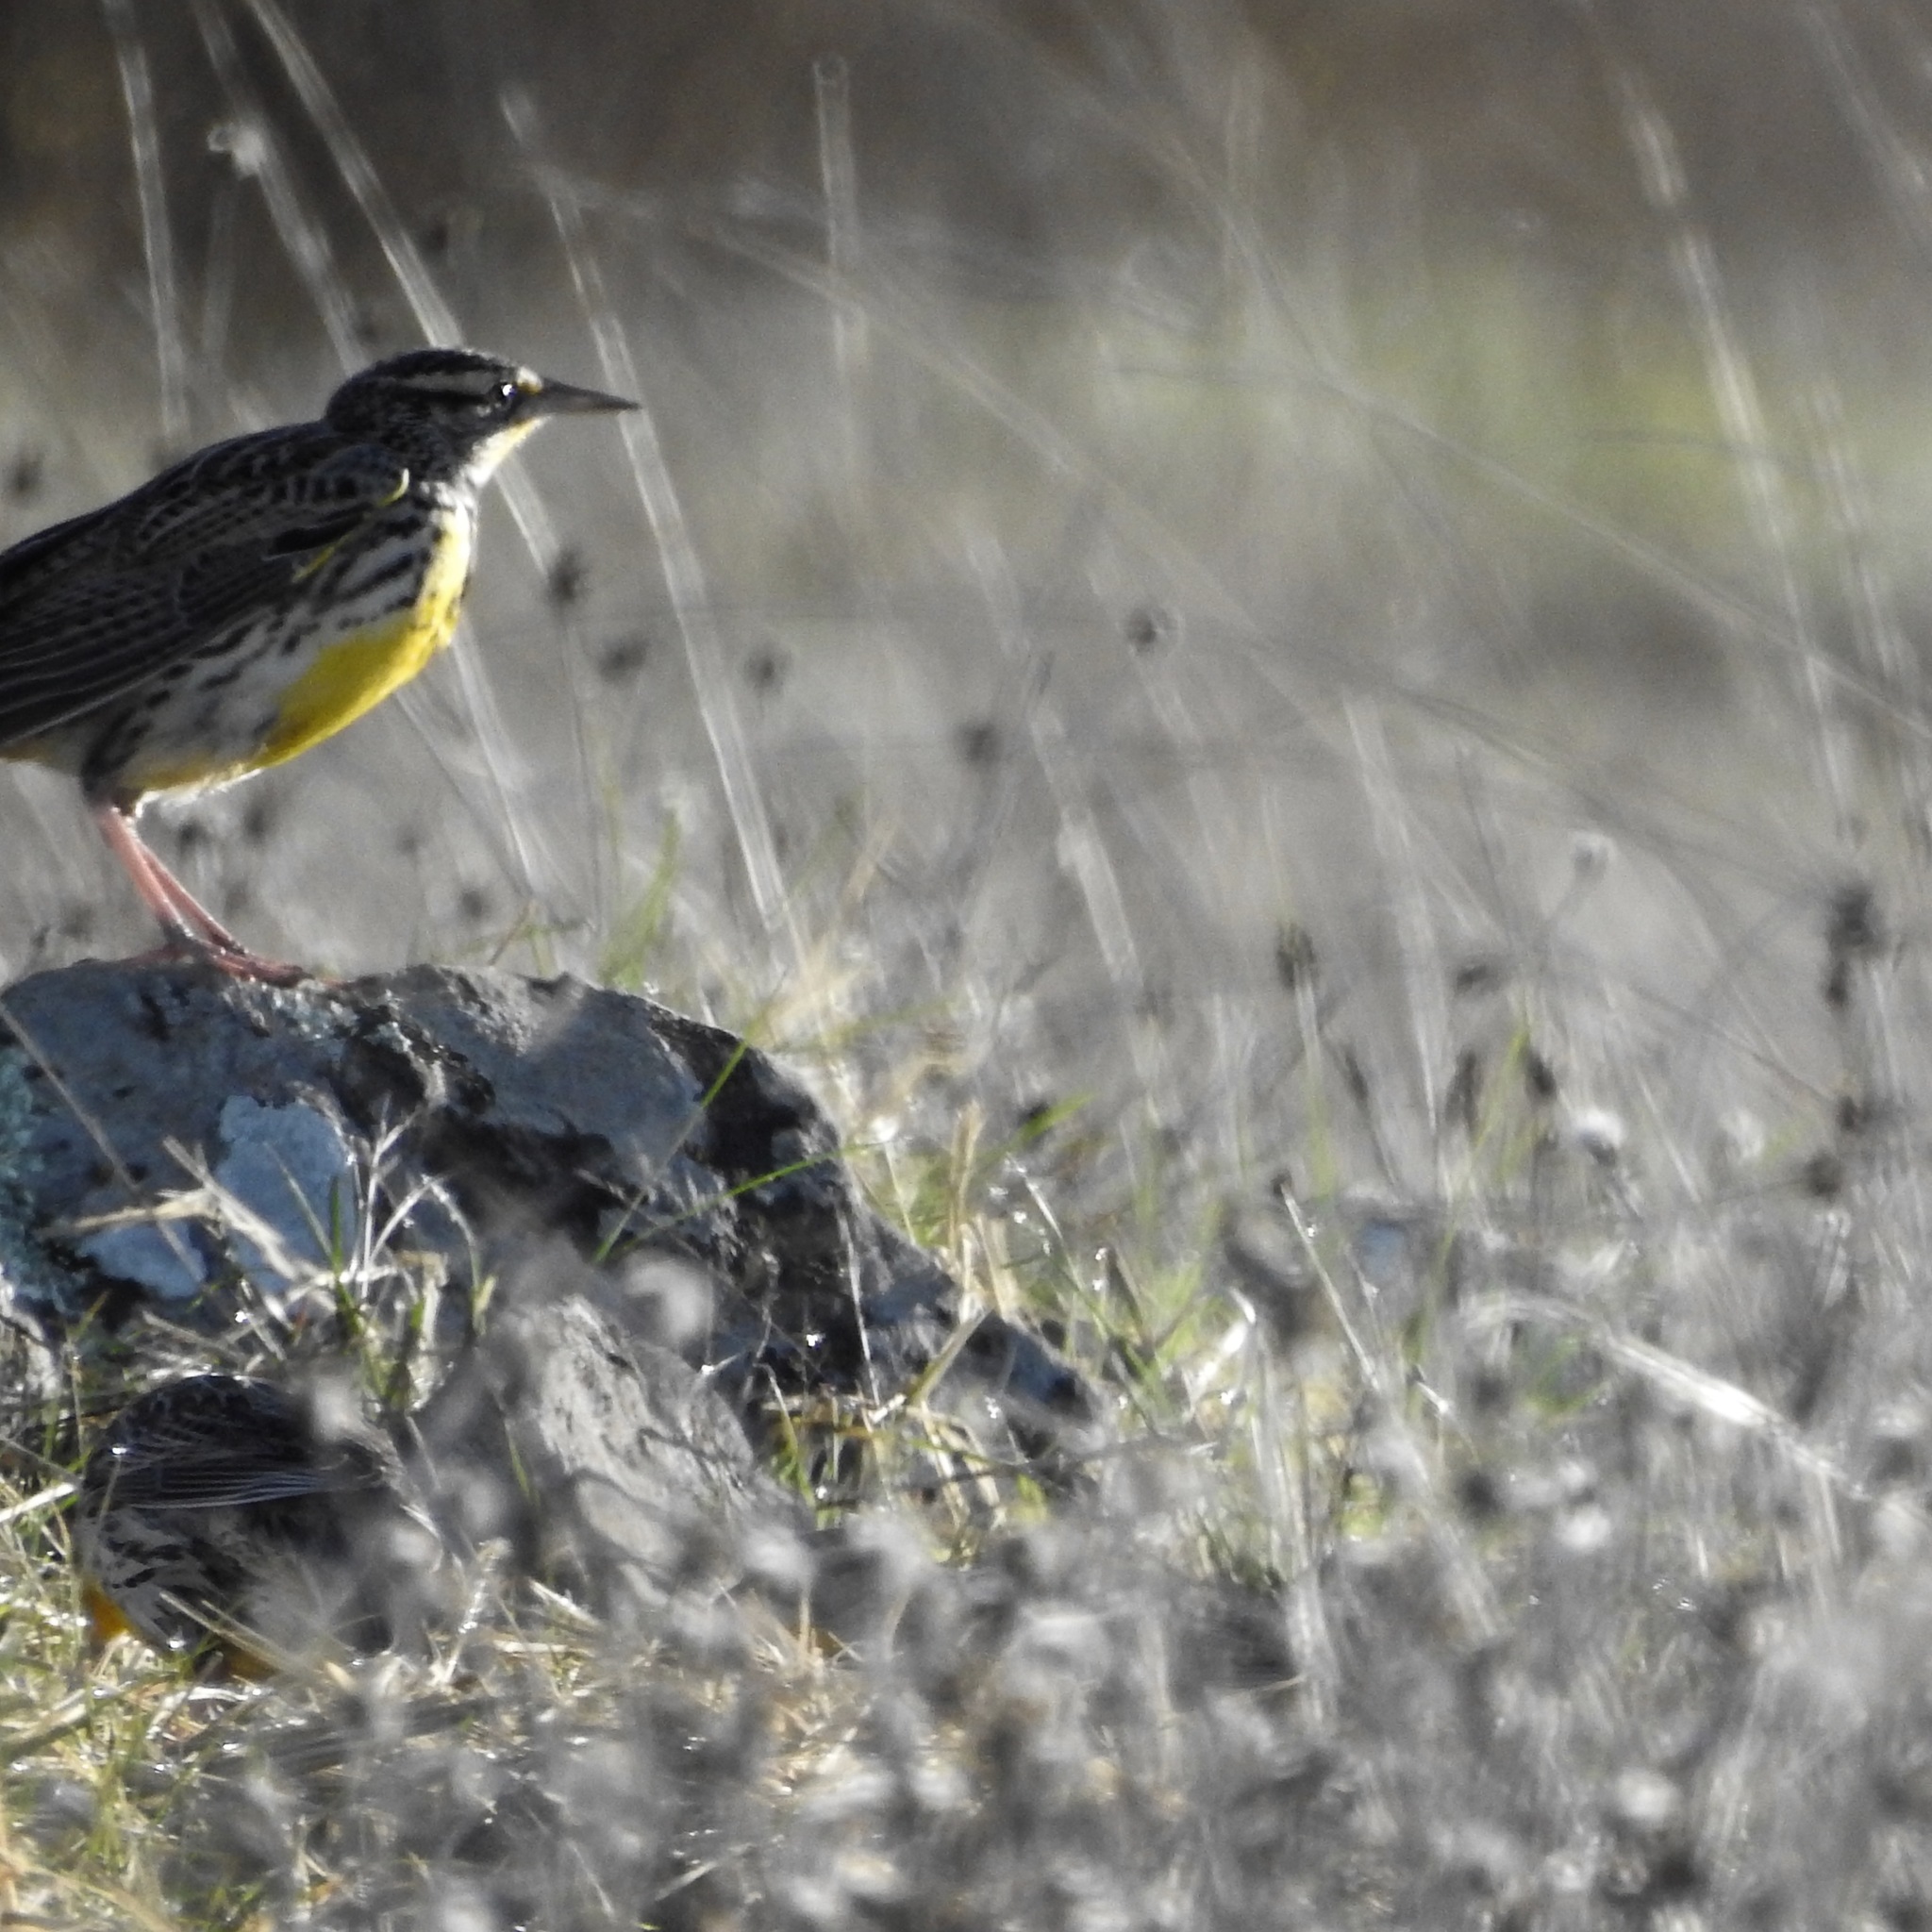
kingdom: Animalia
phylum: Chordata
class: Aves
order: Passeriformes
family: Icteridae
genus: Sturnella
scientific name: Sturnella neglecta
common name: Western meadowlark
